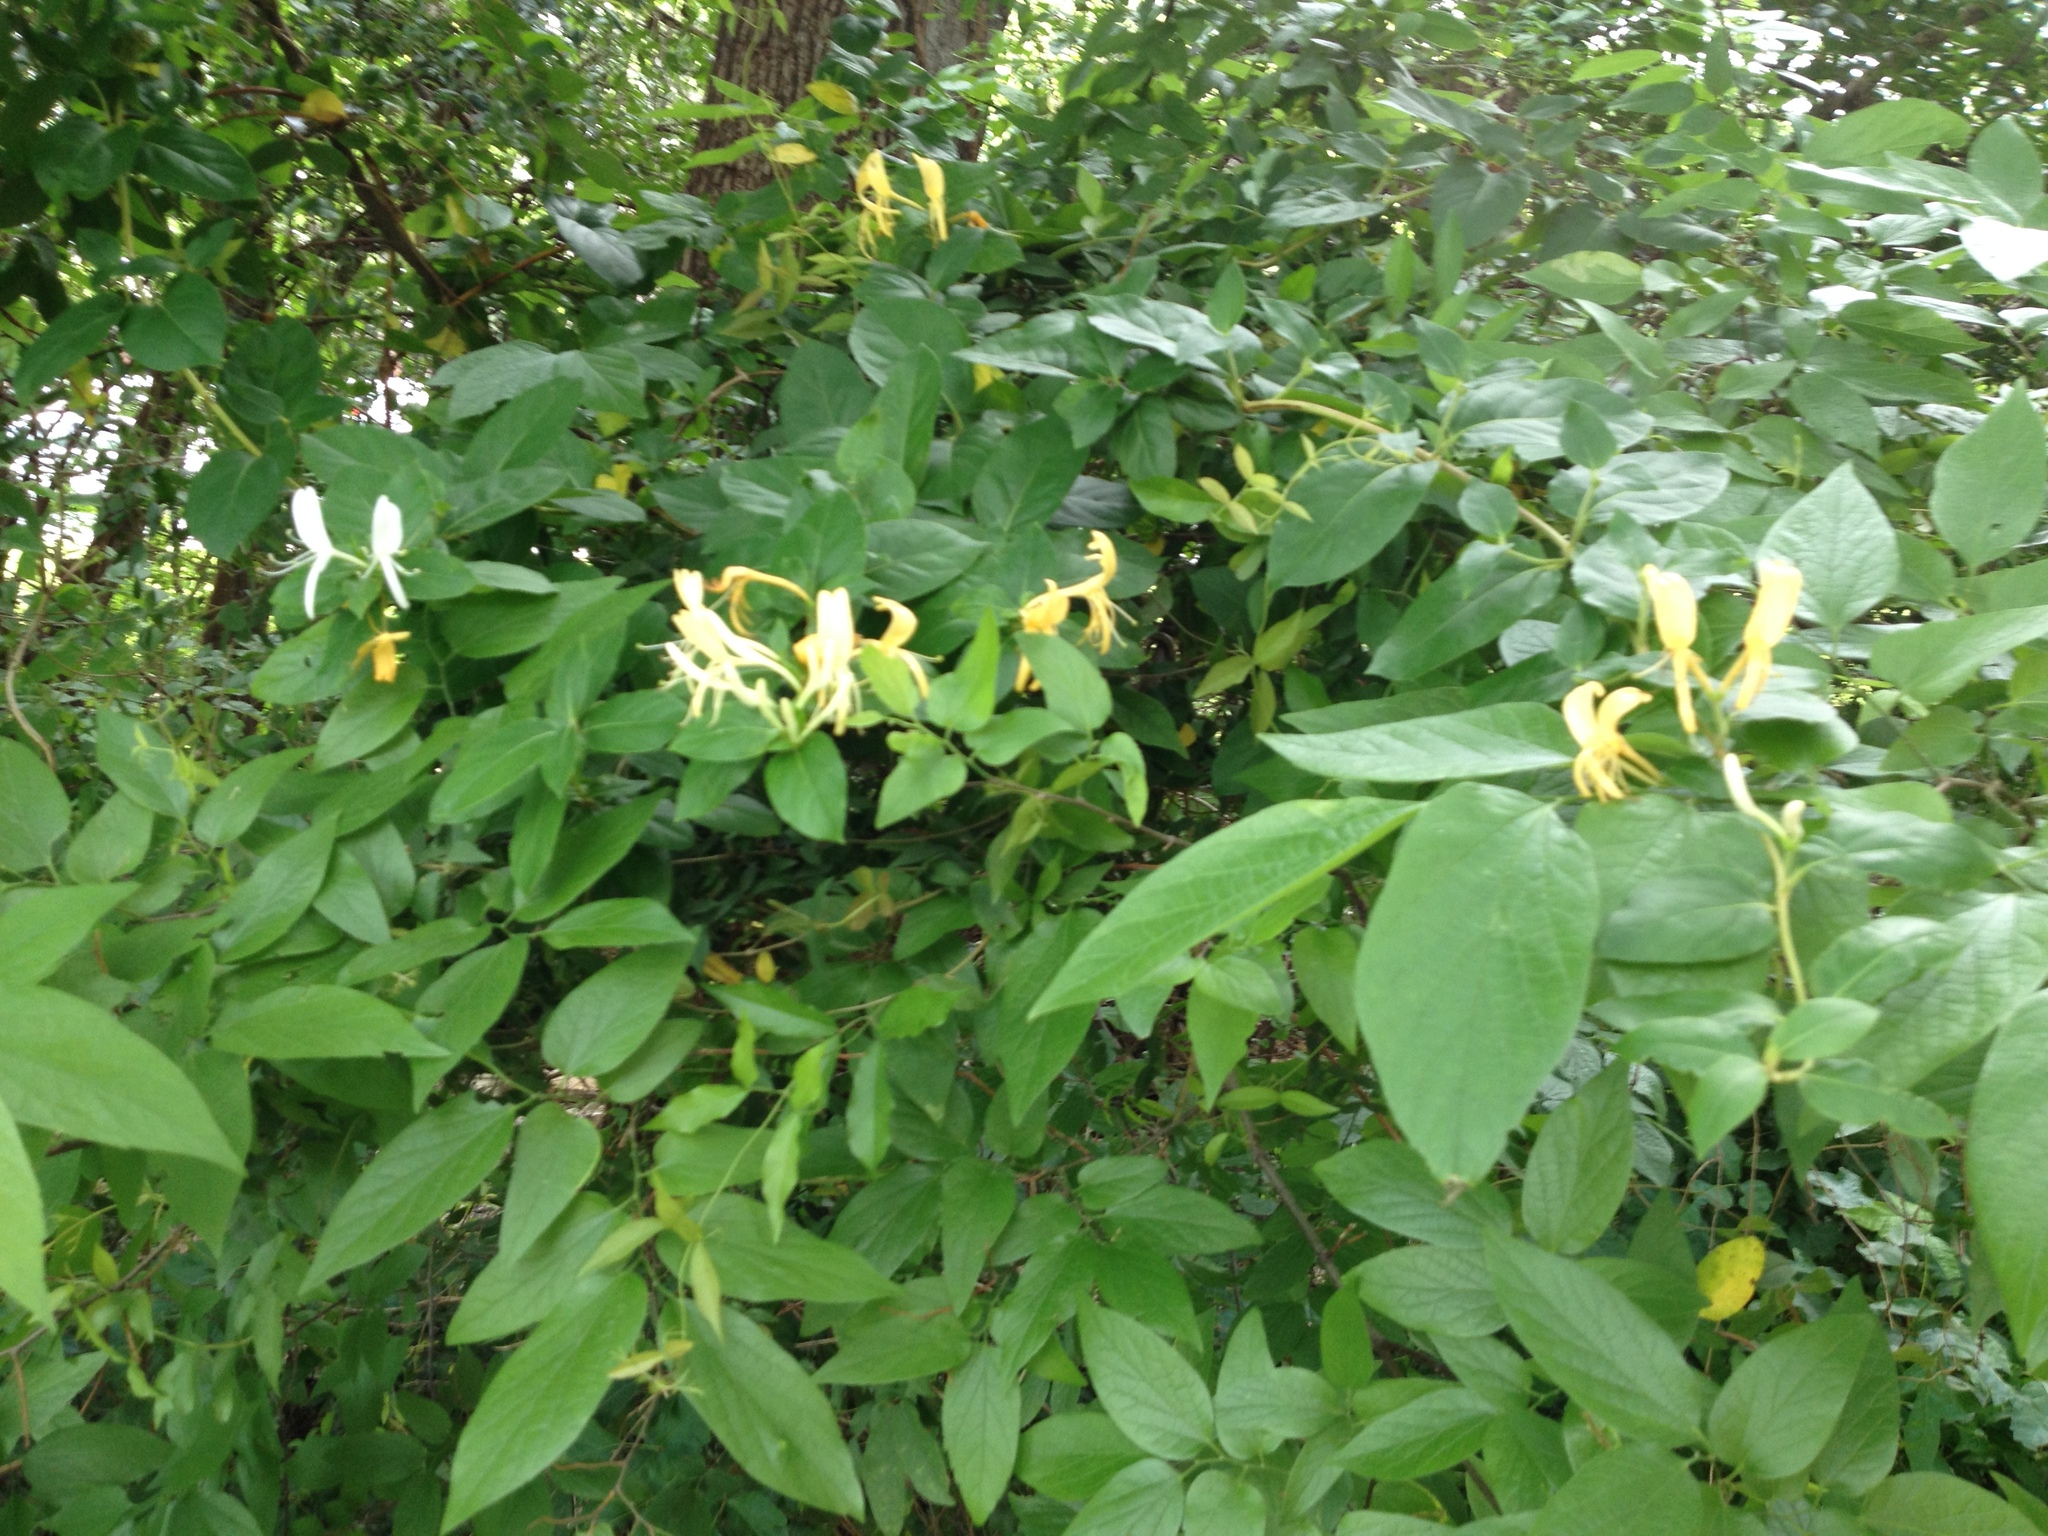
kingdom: Plantae
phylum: Tracheophyta
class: Magnoliopsida
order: Dipsacales
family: Caprifoliaceae
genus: Lonicera
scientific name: Lonicera japonica
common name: Japanese honeysuckle
